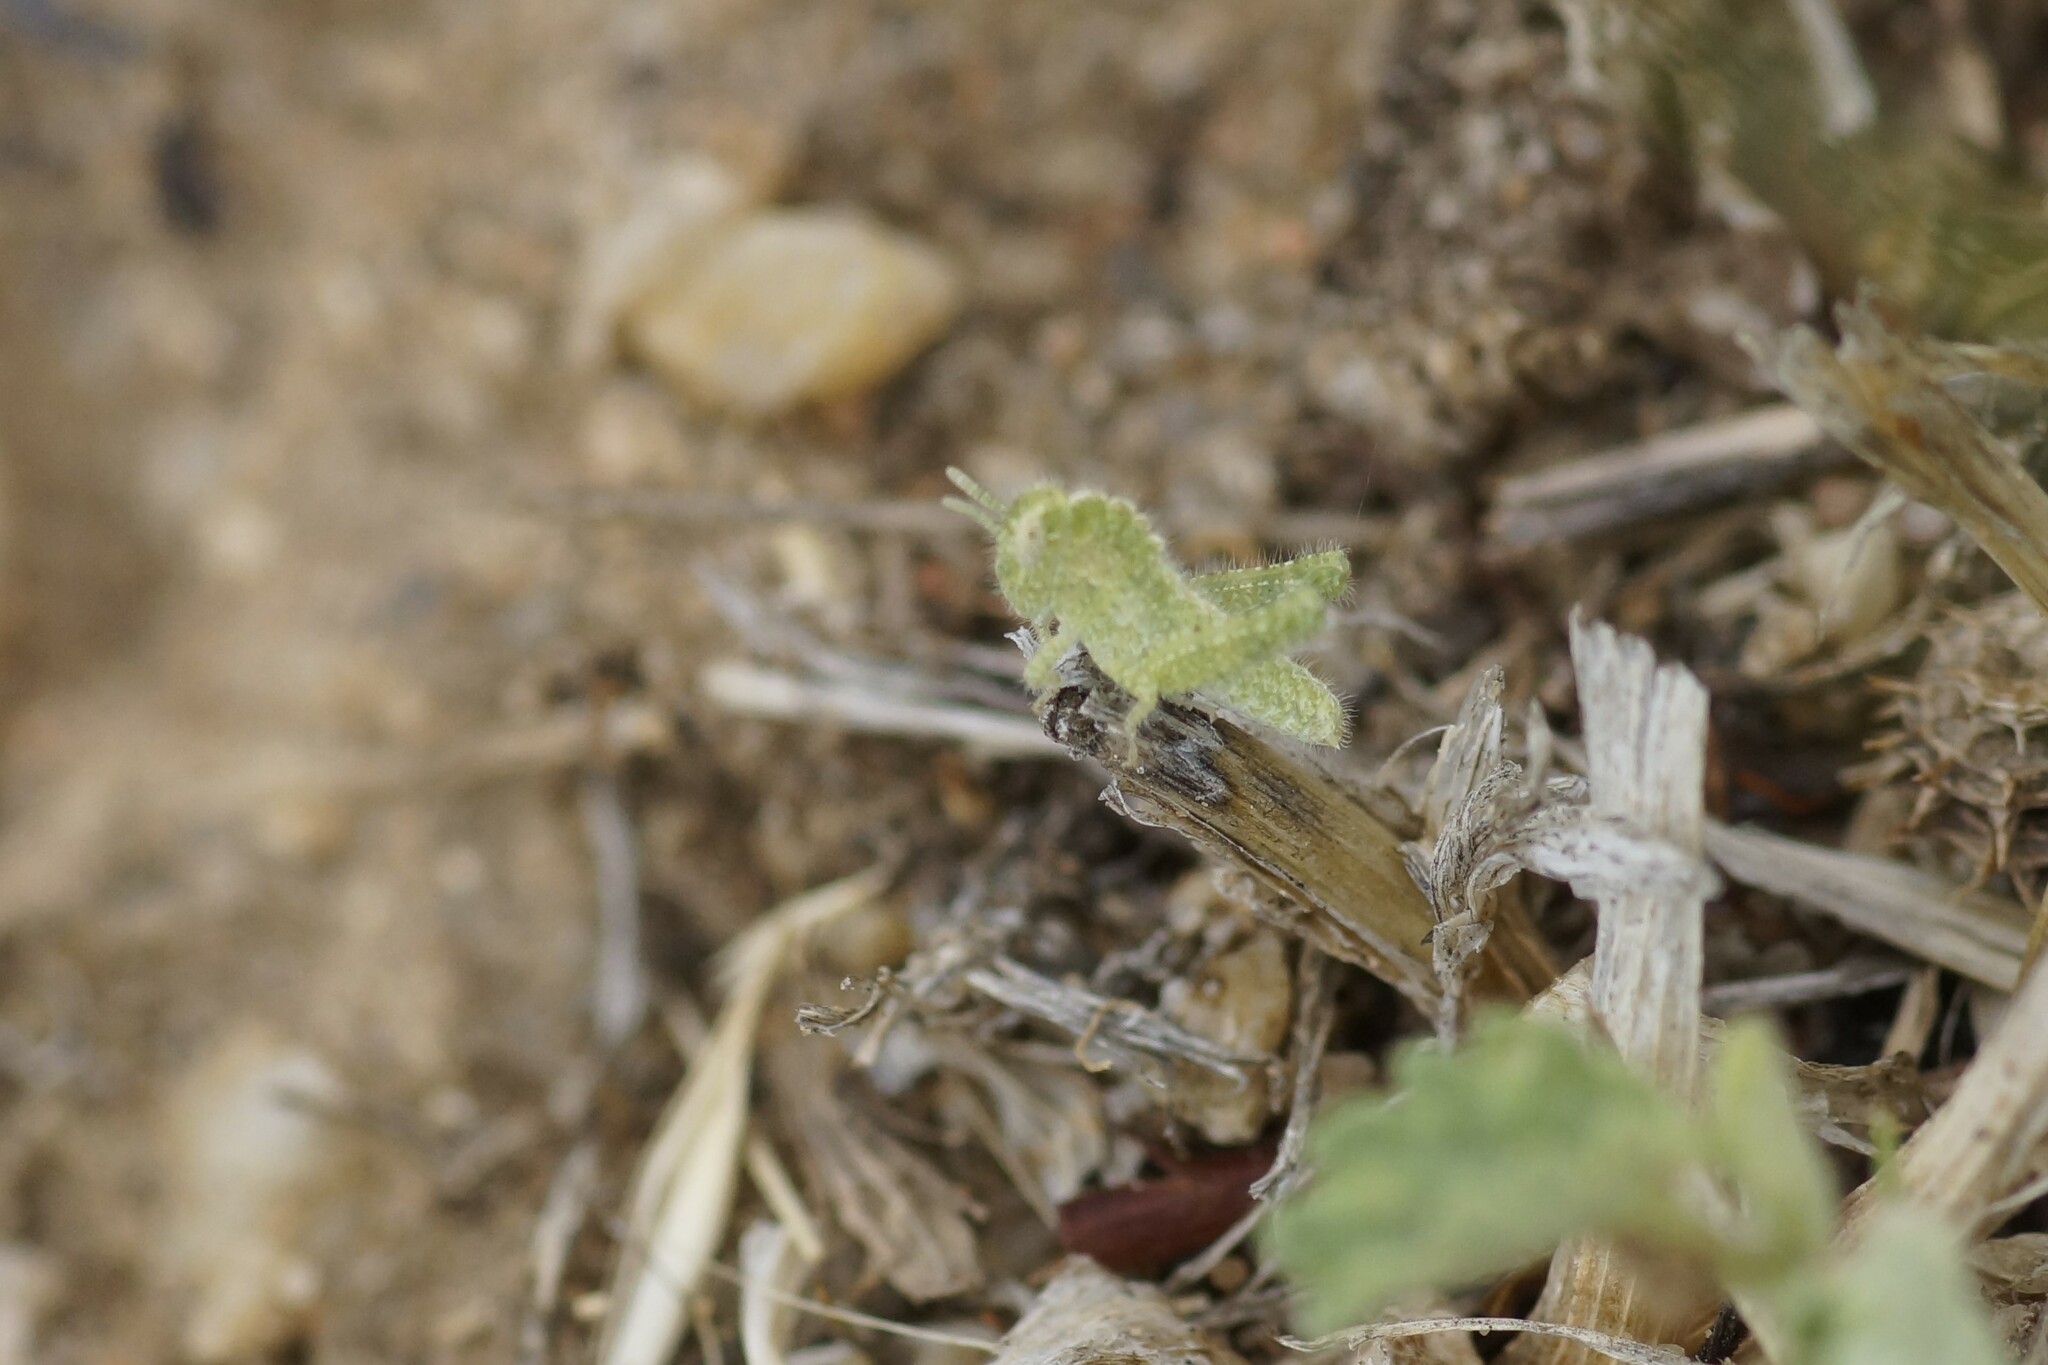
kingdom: Animalia
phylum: Arthropoda
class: Insecta
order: Orthoptera
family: Acrididae
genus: Ecphantus
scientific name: Ecphantus quadrilobus
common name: Crested tooth grinder
